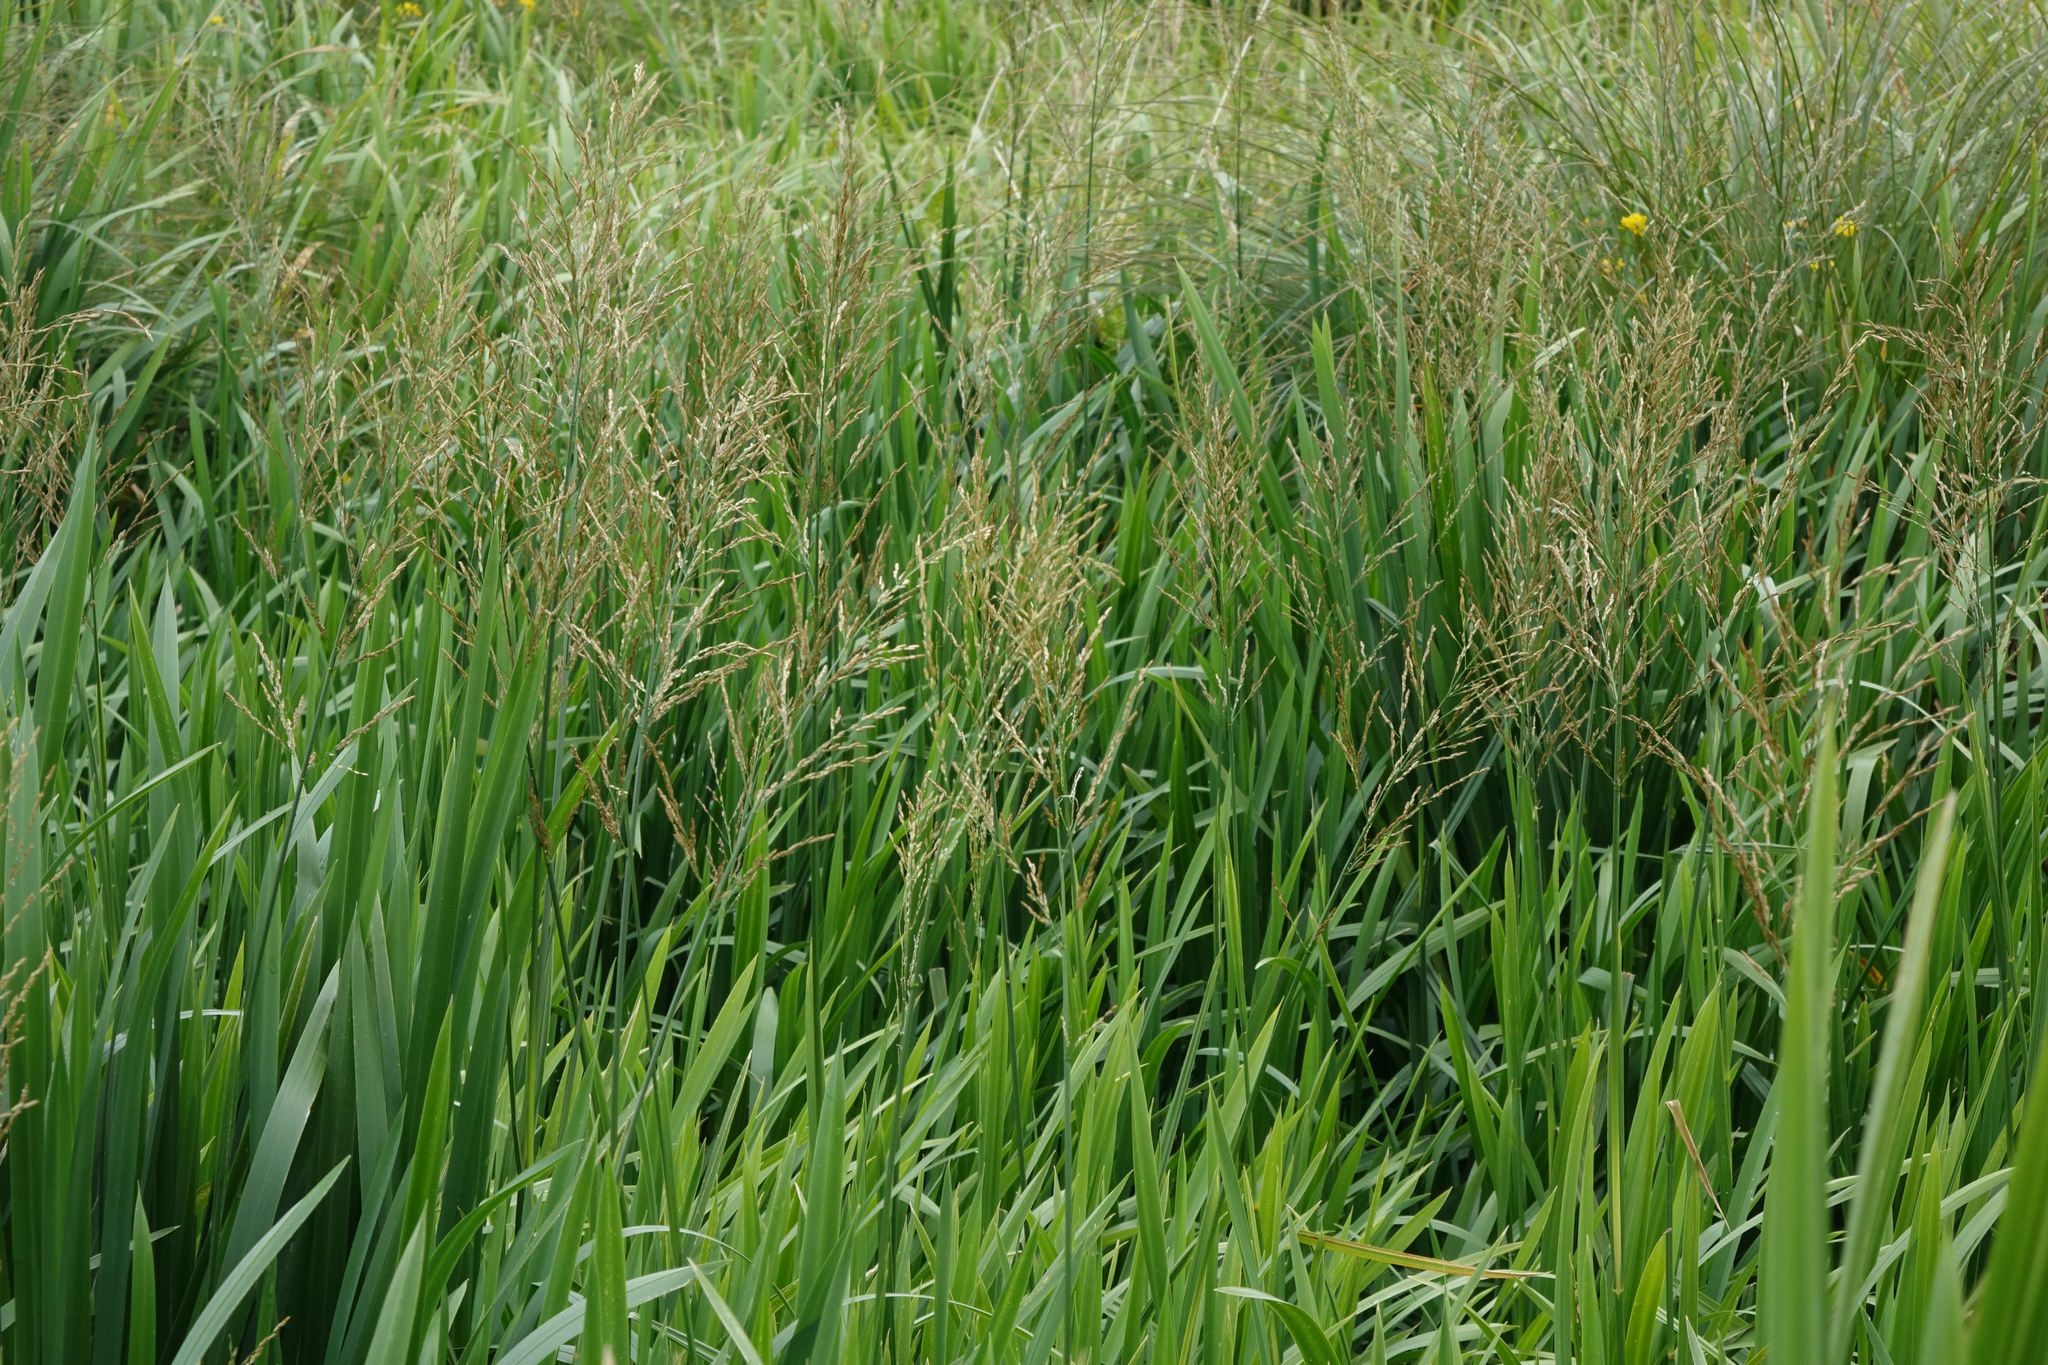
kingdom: Plantae
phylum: Tracheophyta
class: Liliopsida
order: Poales
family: Poaceae
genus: Glyceria
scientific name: Glyceria maxima
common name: Reed mannagrass
